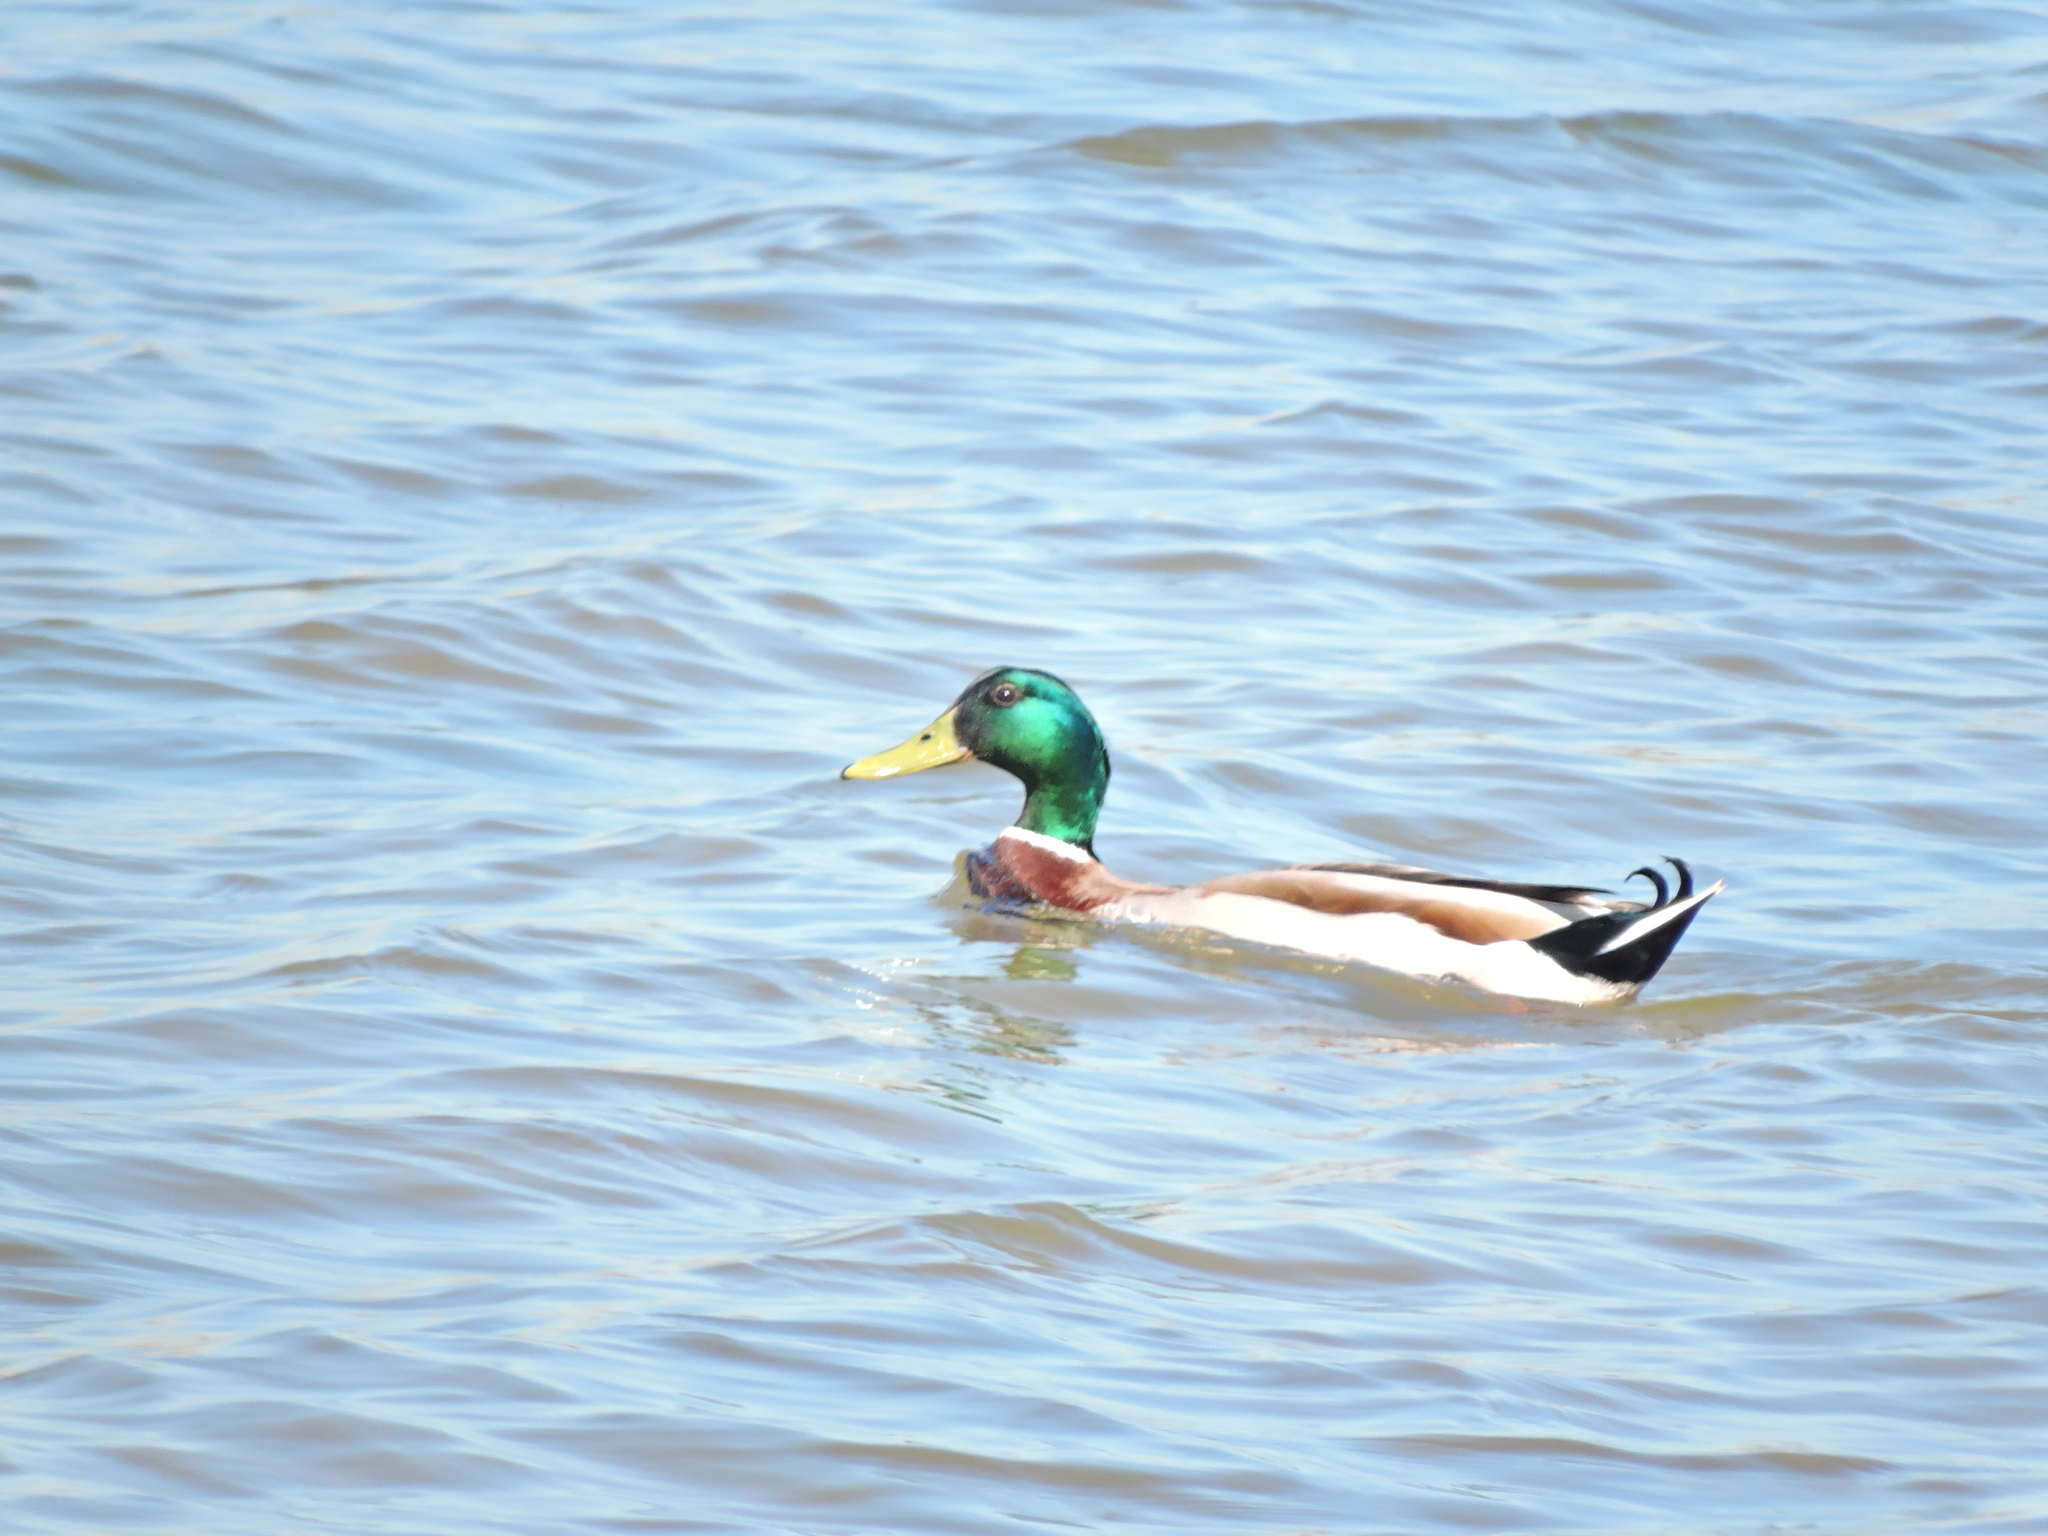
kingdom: Animalia
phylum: Chordata
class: Aves
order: Anseriformes
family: Anatidae
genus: Anas
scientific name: Anas platyrhynchos
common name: Mallard
